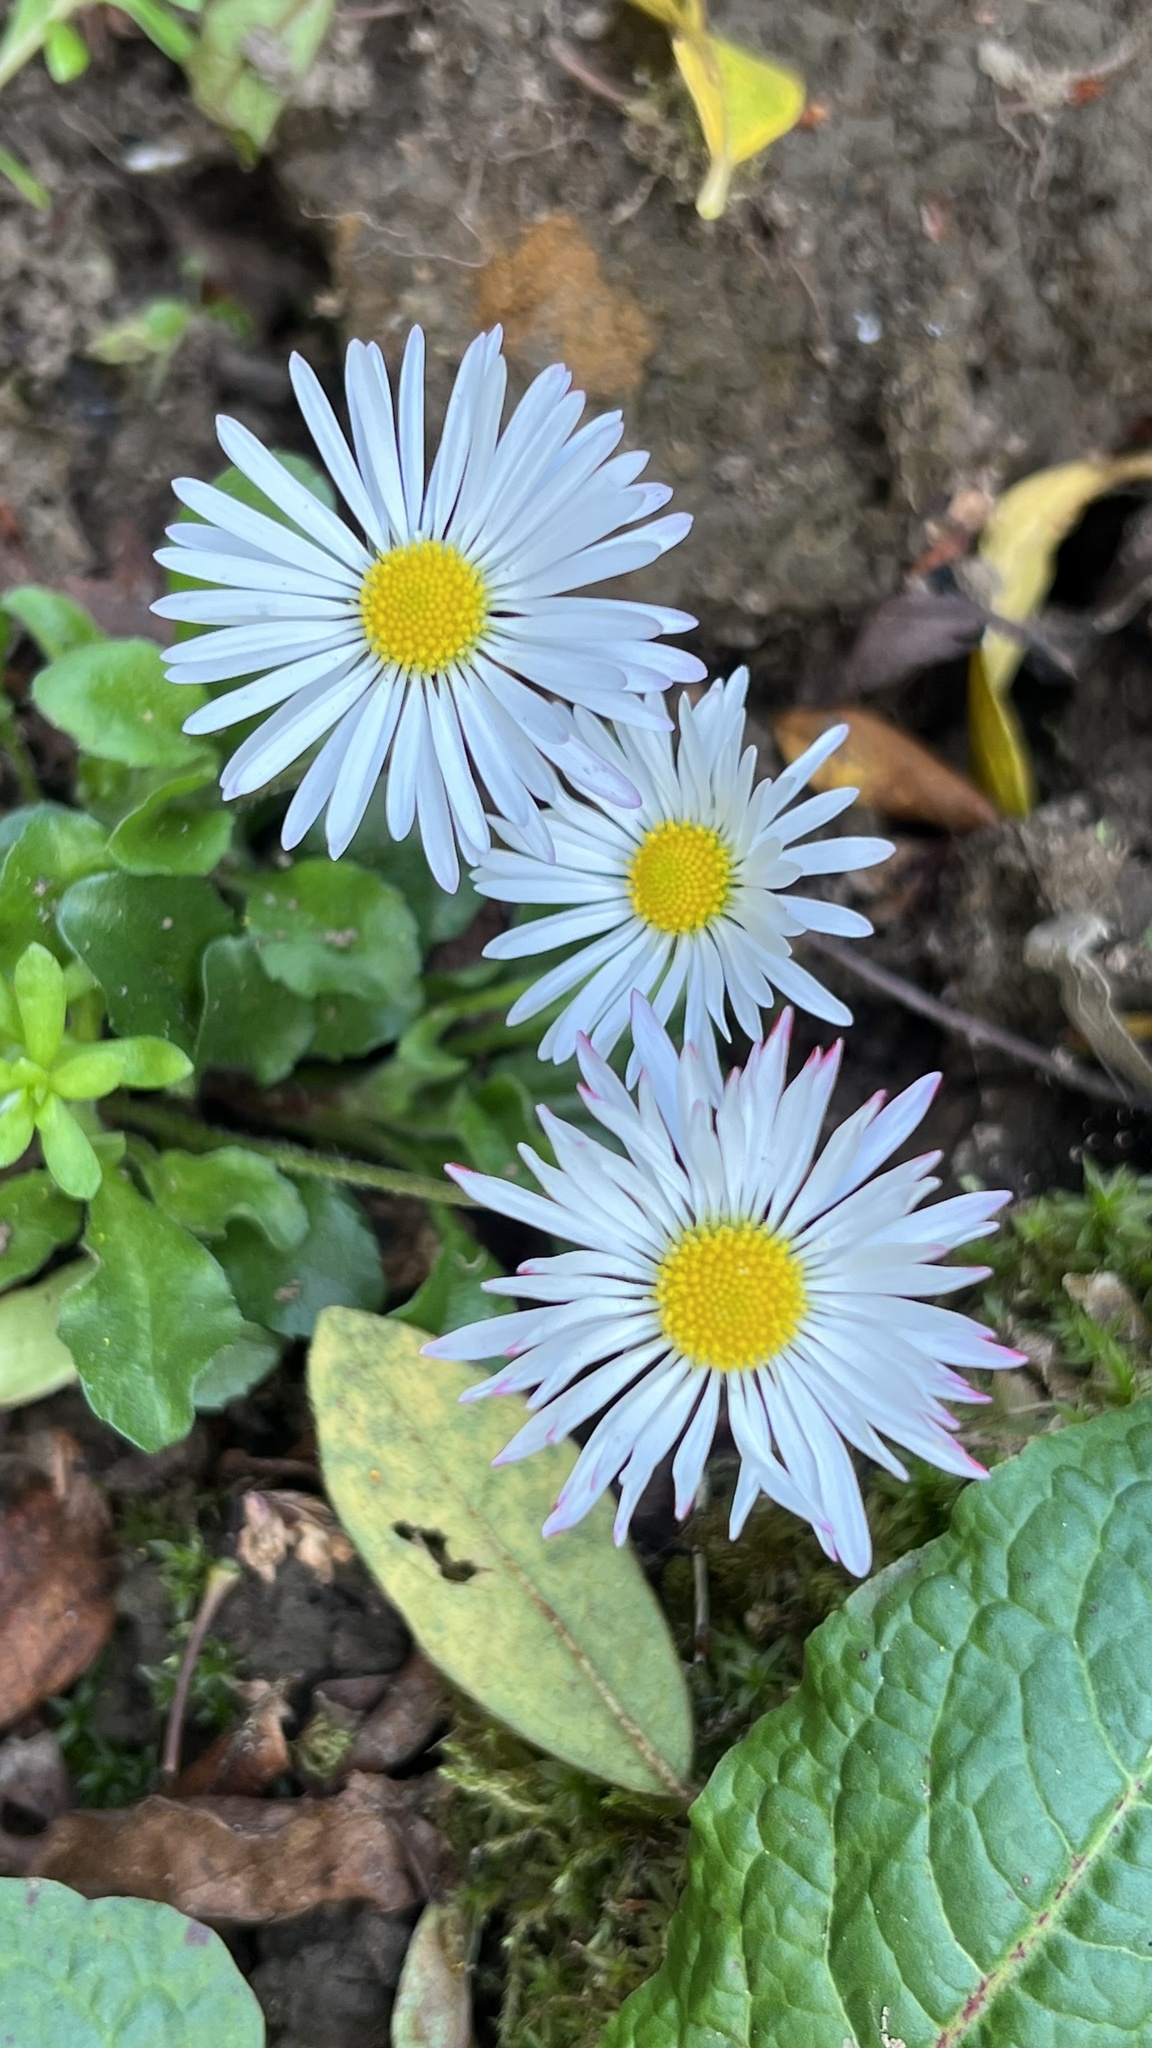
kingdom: Plantae
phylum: Tracheophyta
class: Magnoliopsida
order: Asterales
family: Asteraceae
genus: Bellis
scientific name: Bellis perennis
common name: Lawndaisy
